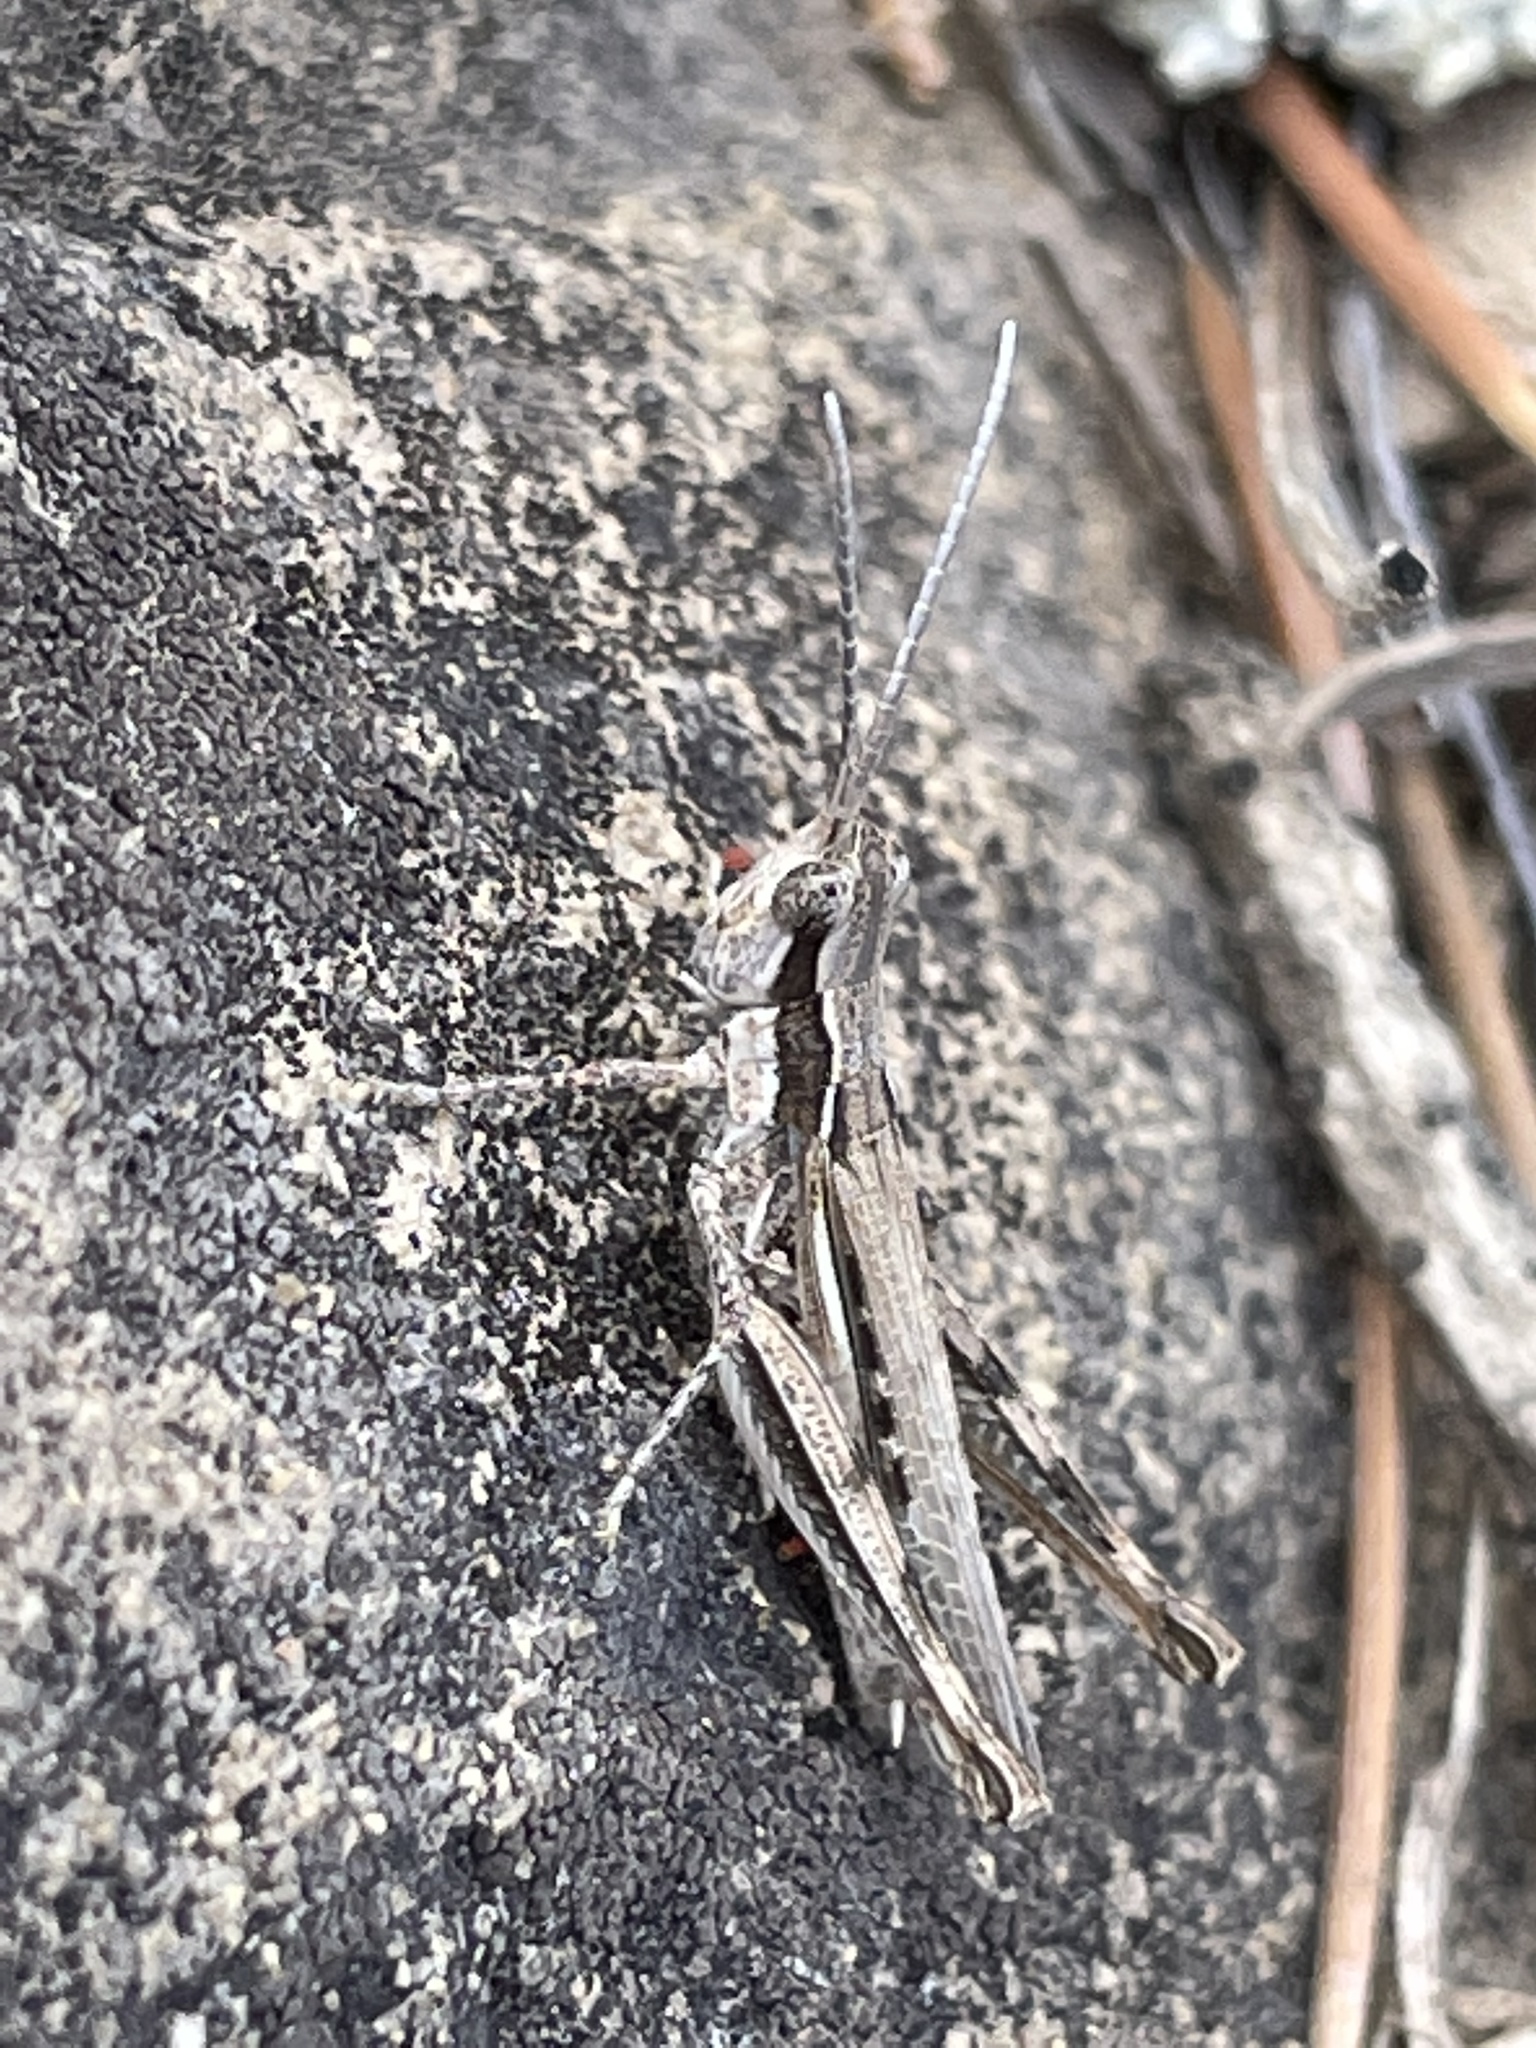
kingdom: Animalia
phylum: Arthropoda
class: Insecta
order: Orthoptera
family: Acrididae
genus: Cordillacris
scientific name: Cordillacris occipitalis
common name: Spotted-winged grasshopper
